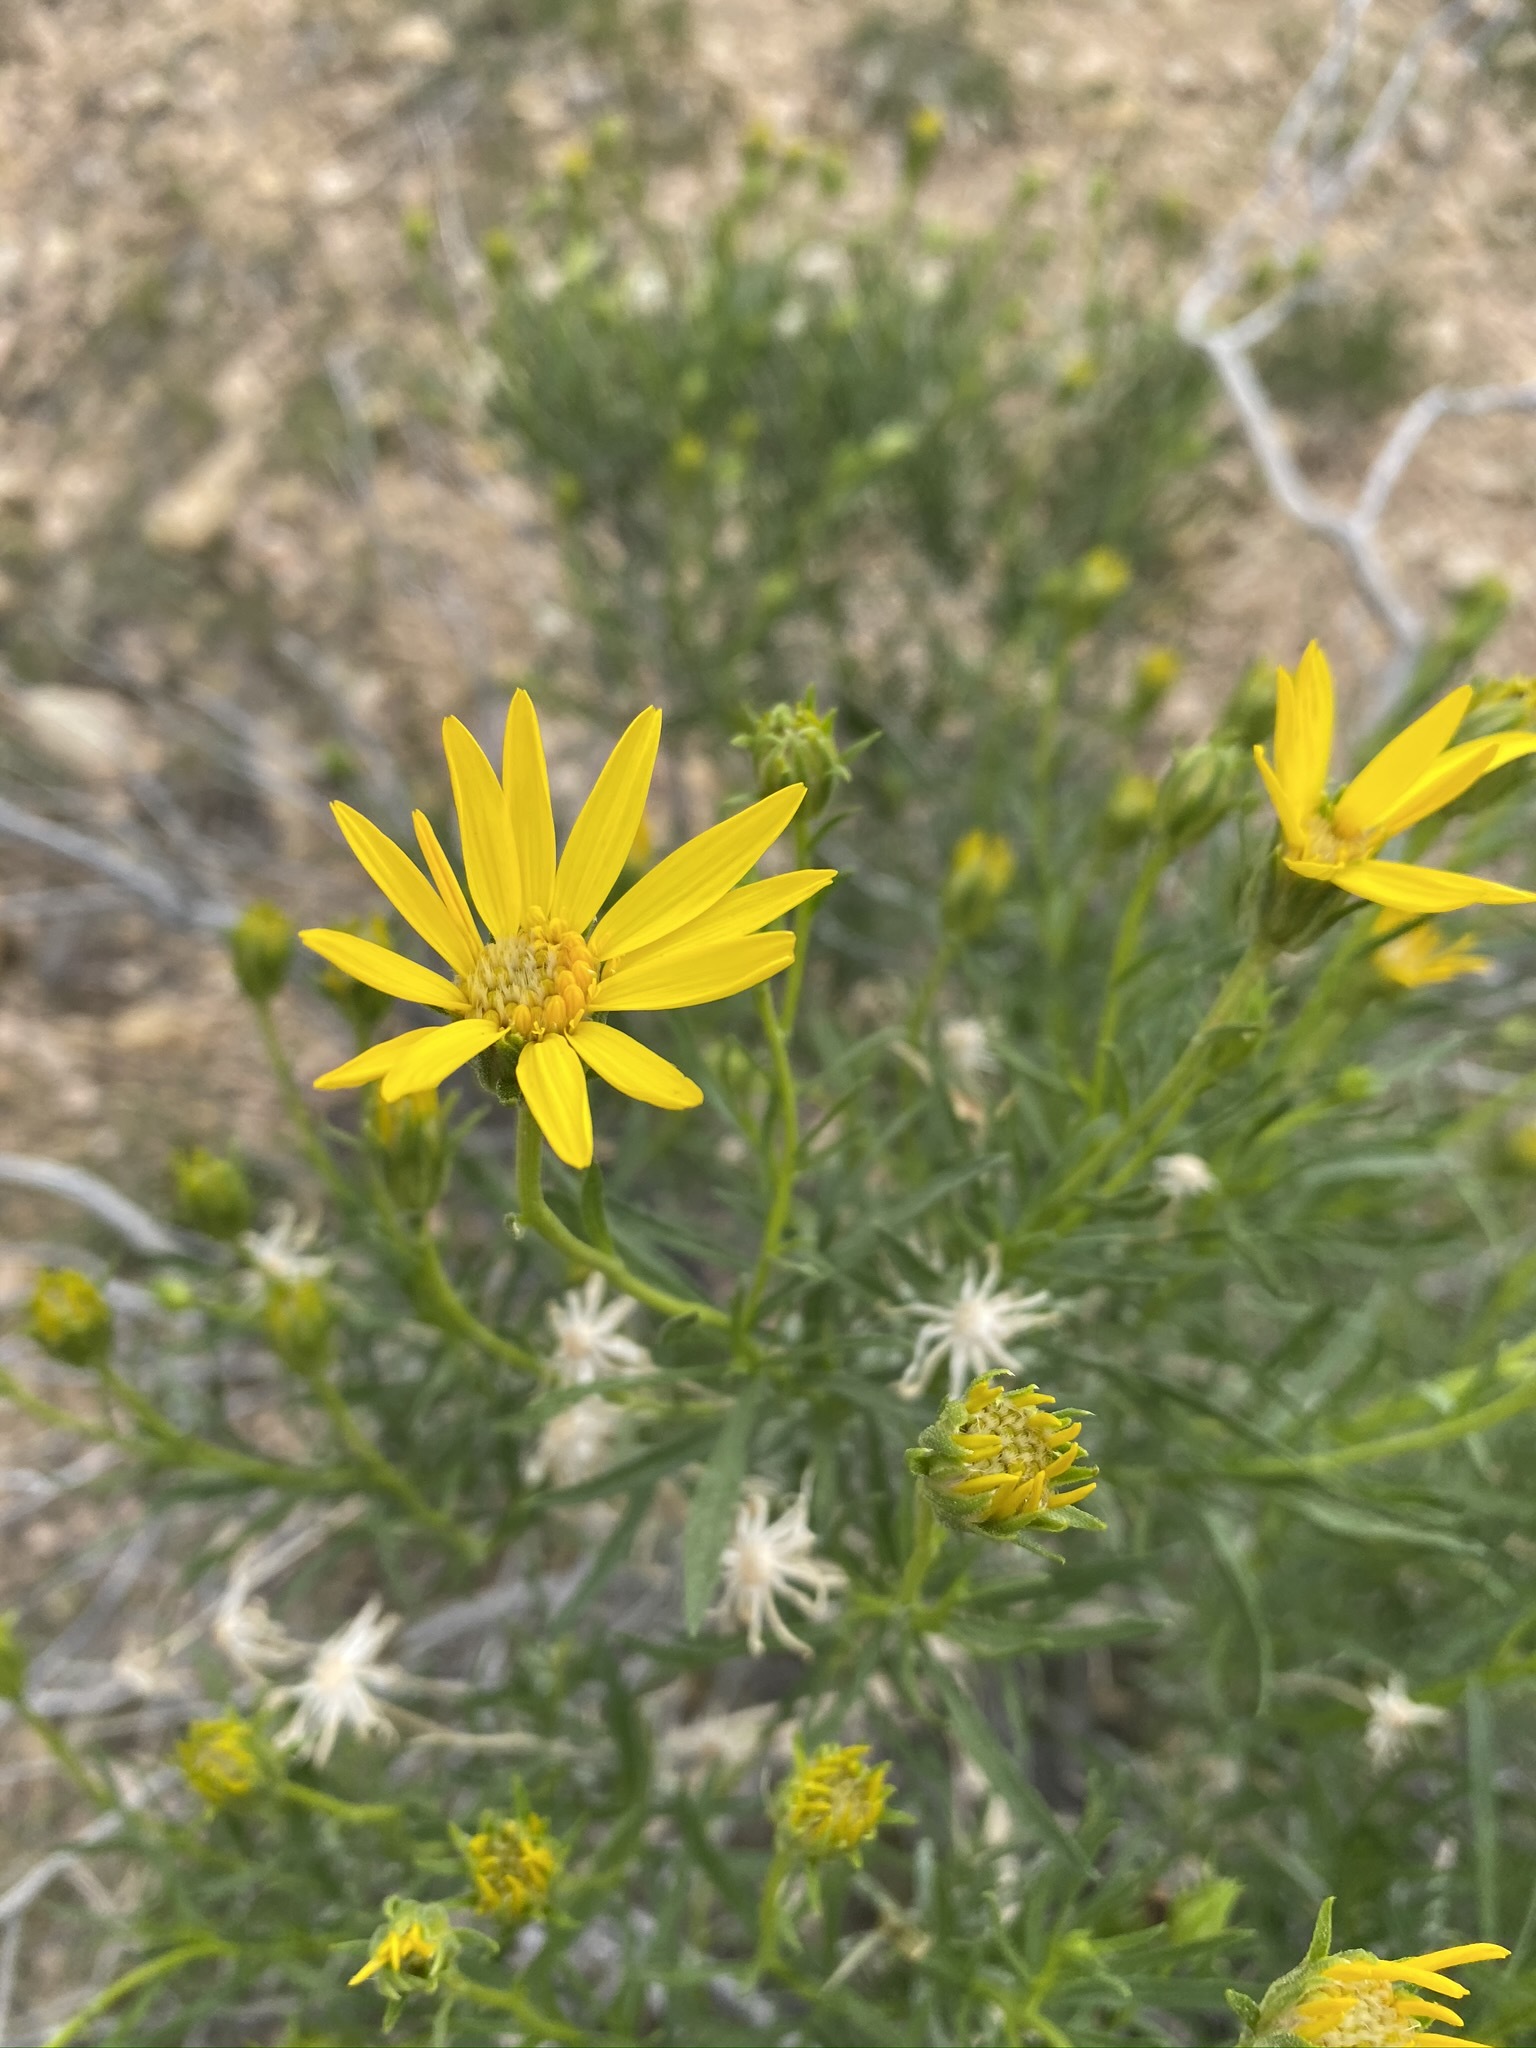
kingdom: Plantae
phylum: Tracheophyta
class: Magnoliopsida
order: Asterales
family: Asteraceae
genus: Ericameria
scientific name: Ericameria linearifolia
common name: Interior goldenbush
